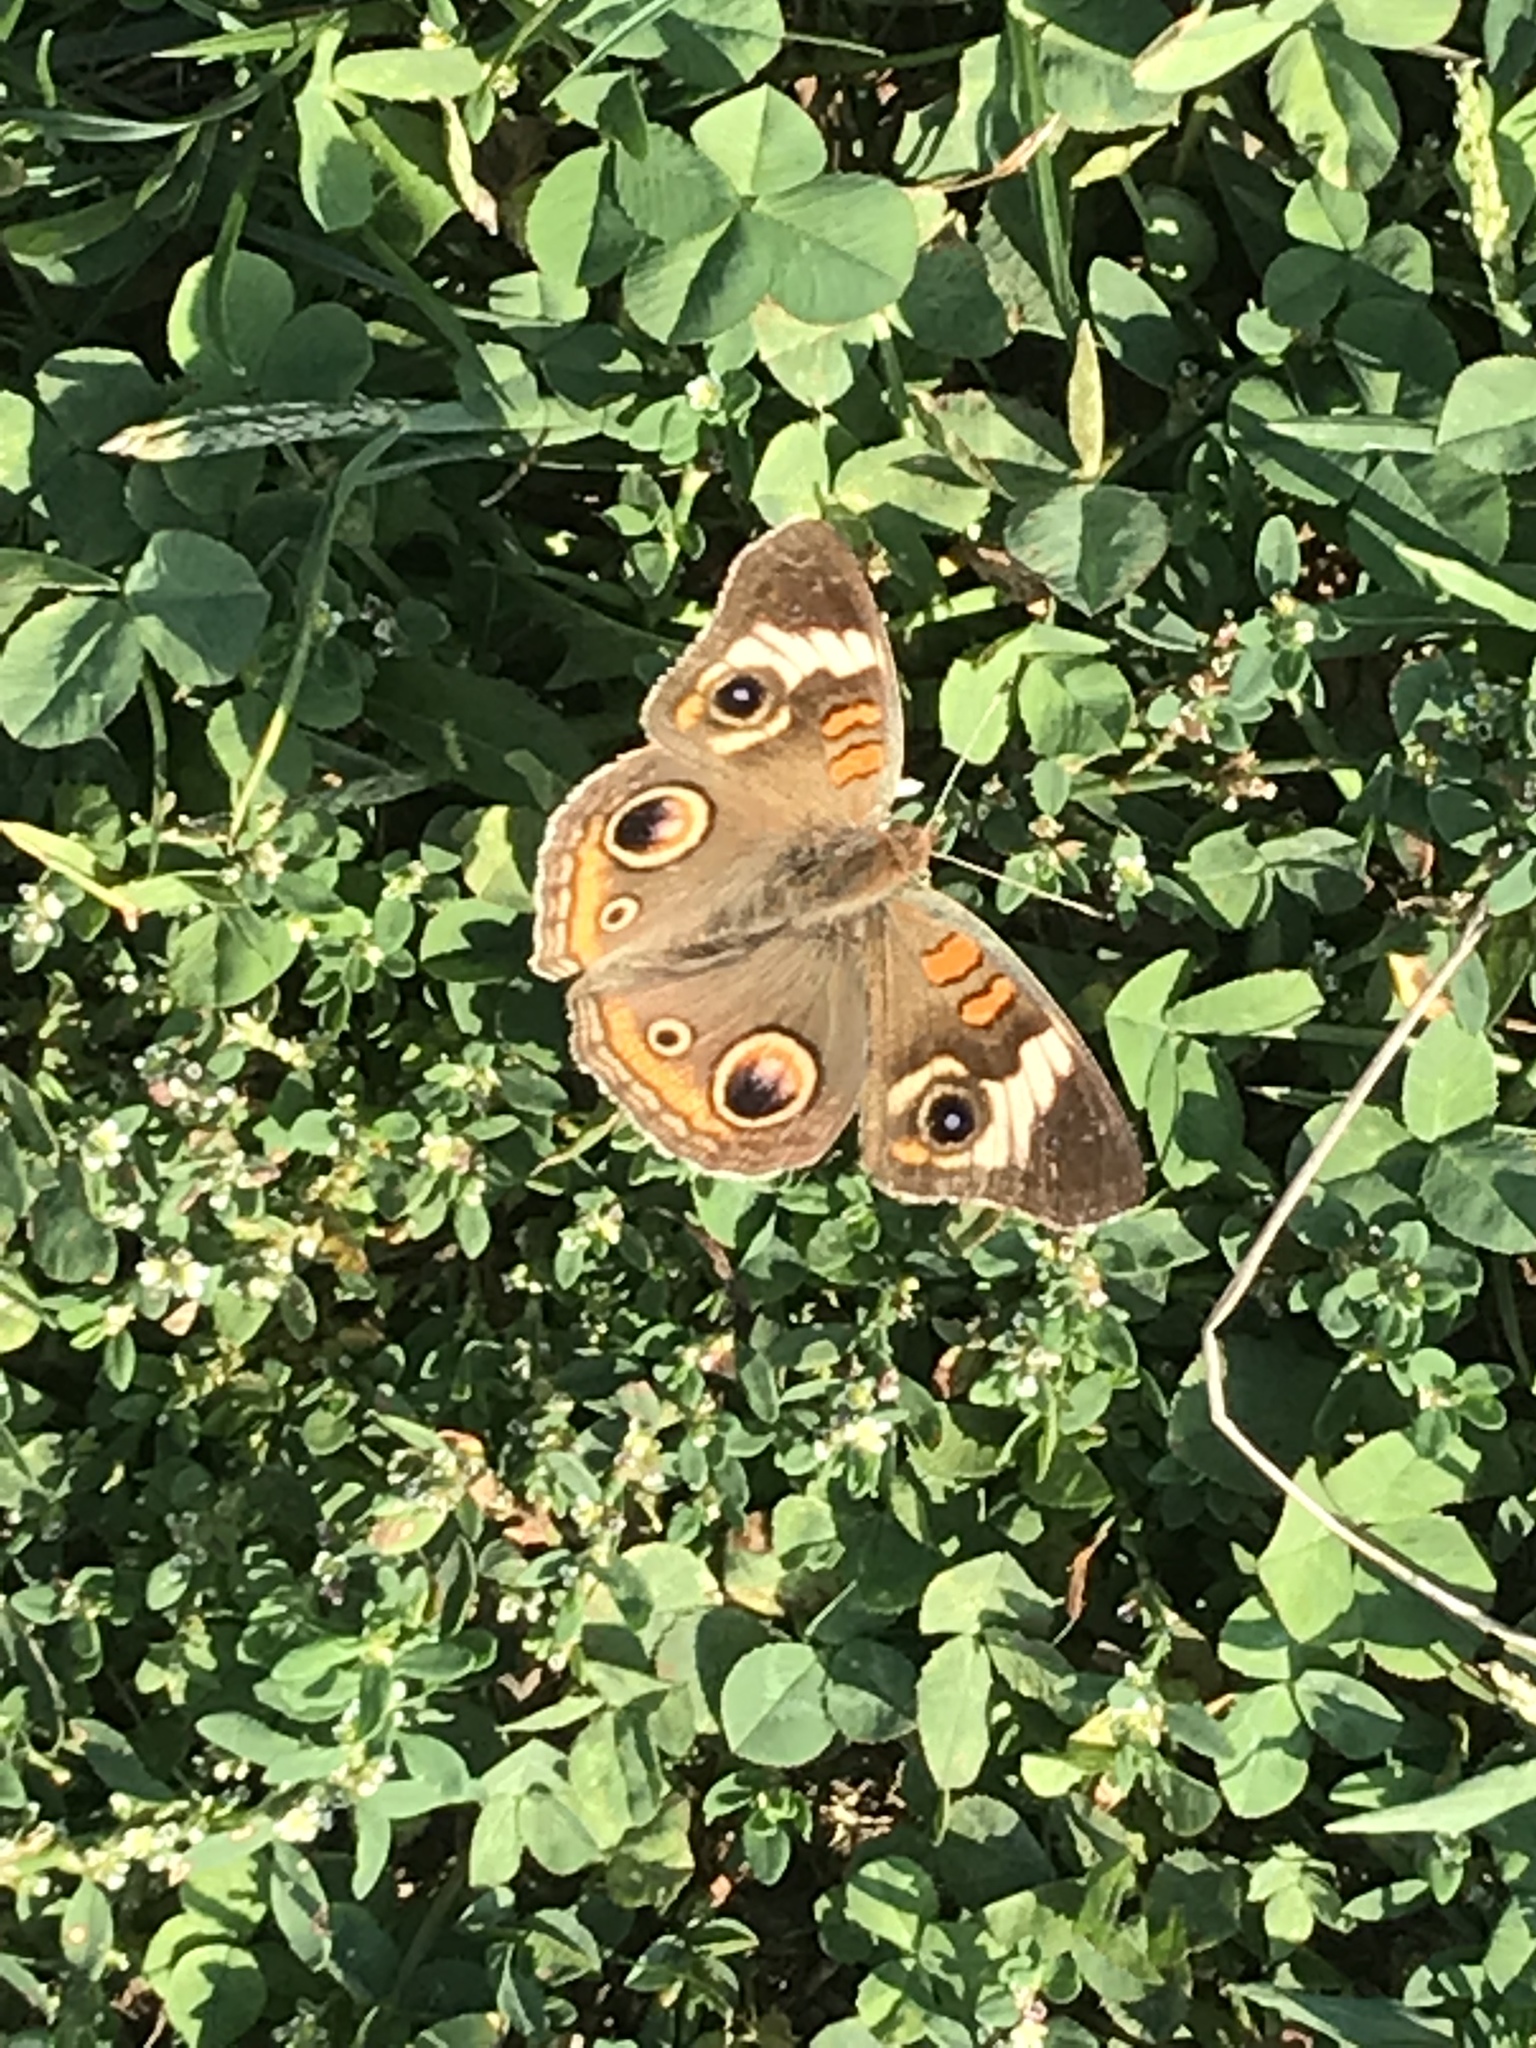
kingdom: Animalia
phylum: Arthropoda
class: Insecta
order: Lepidoptera
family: Nymphalidae
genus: Junonia
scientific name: Junonia coenia
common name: Common buckeye
